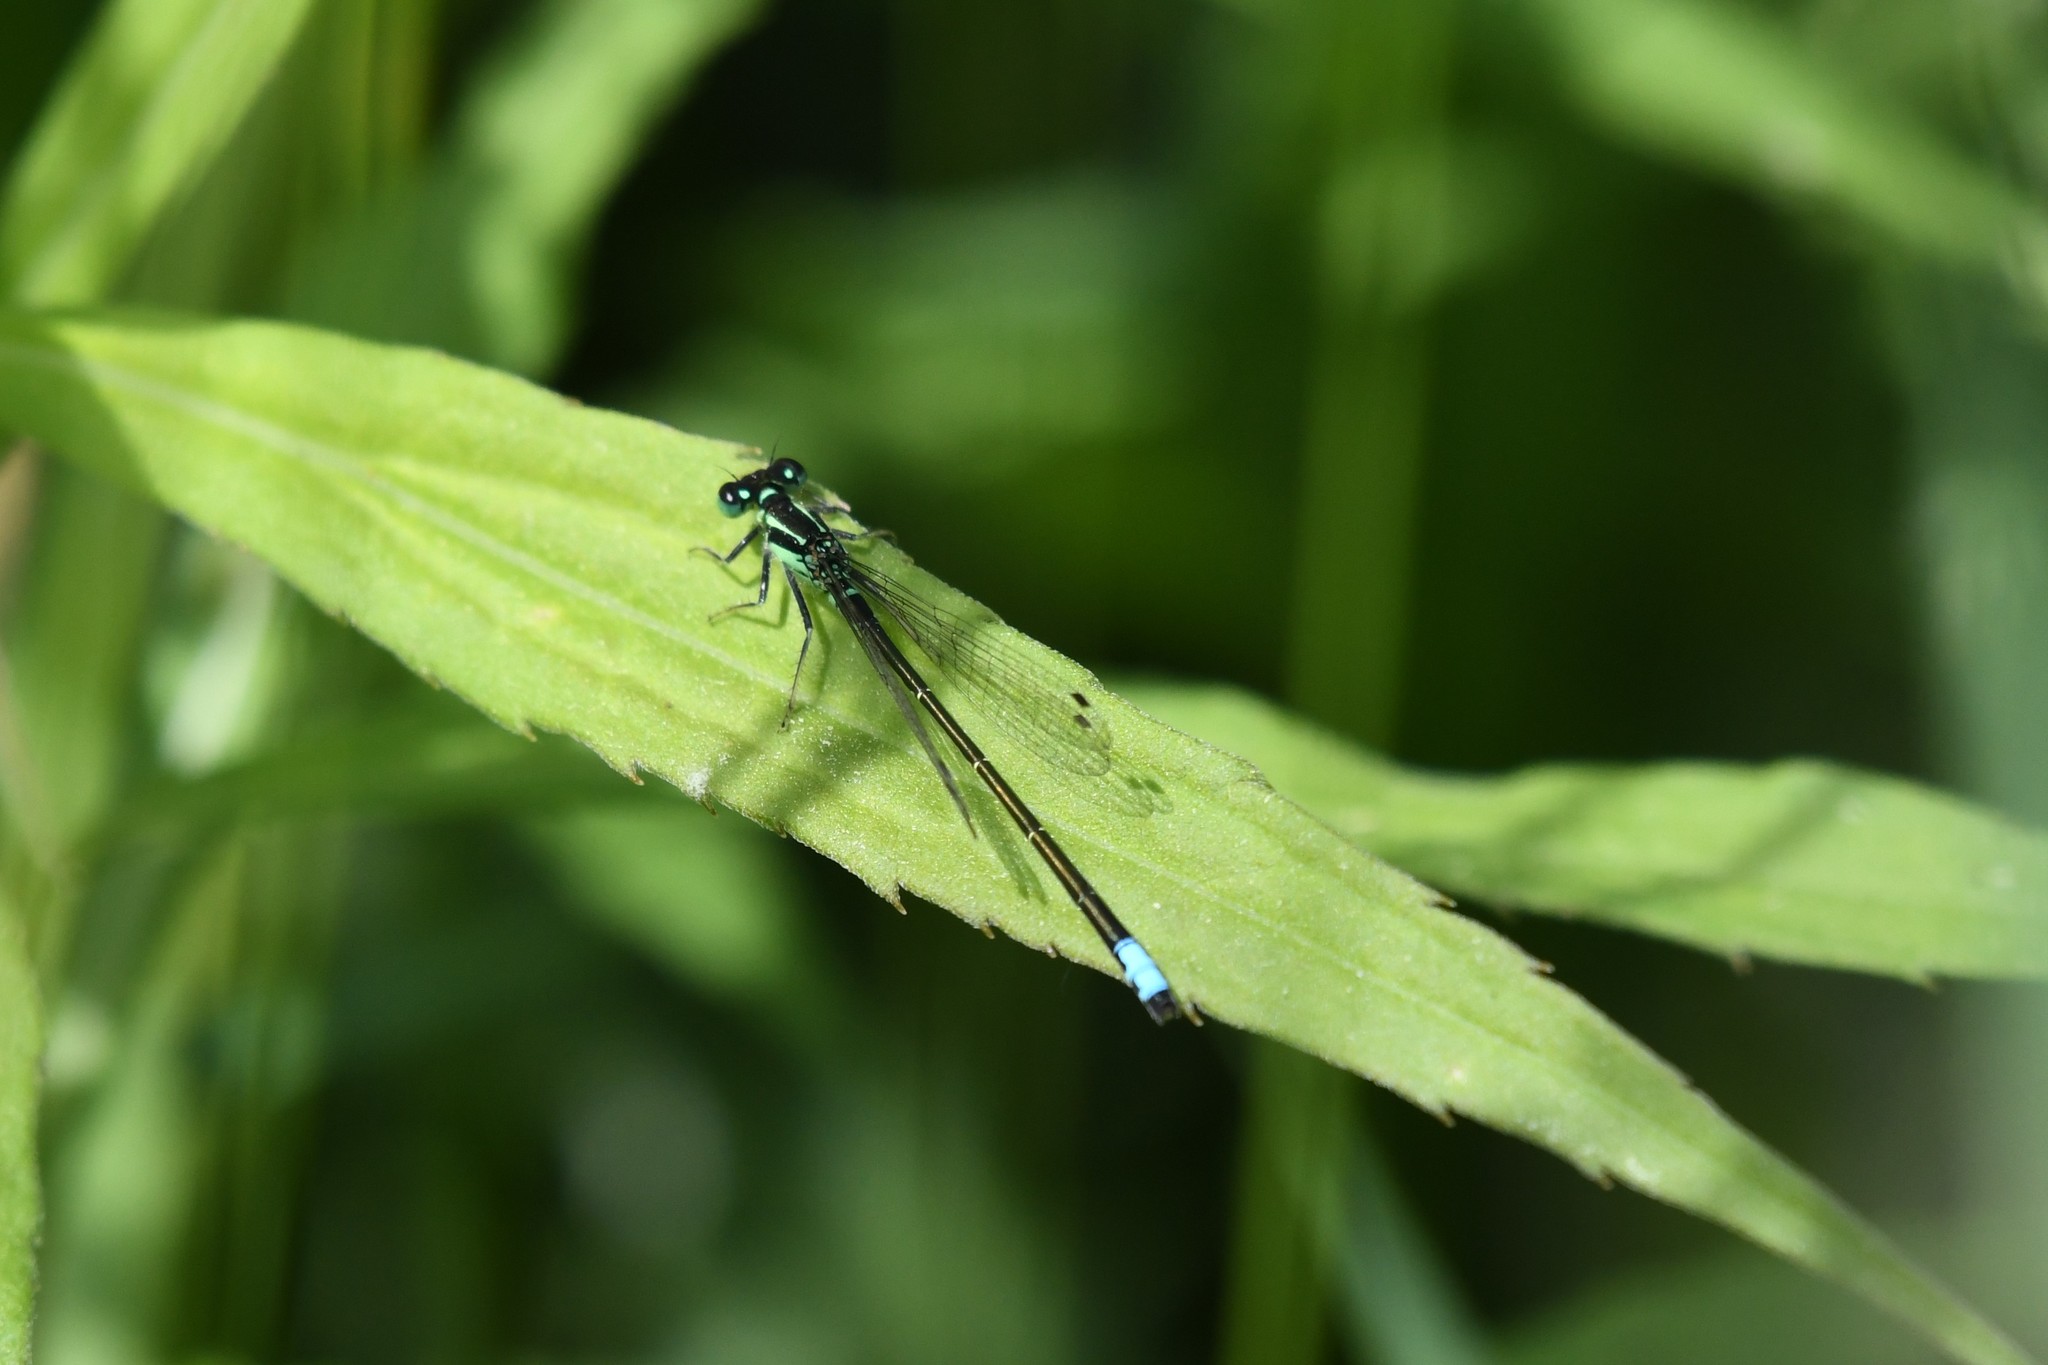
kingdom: Animalia
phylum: Arthropoda
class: Insecta
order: Odonata
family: Coenagrionidae
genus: Ischnura
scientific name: Ischnura verticalis
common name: Eastern forktail
